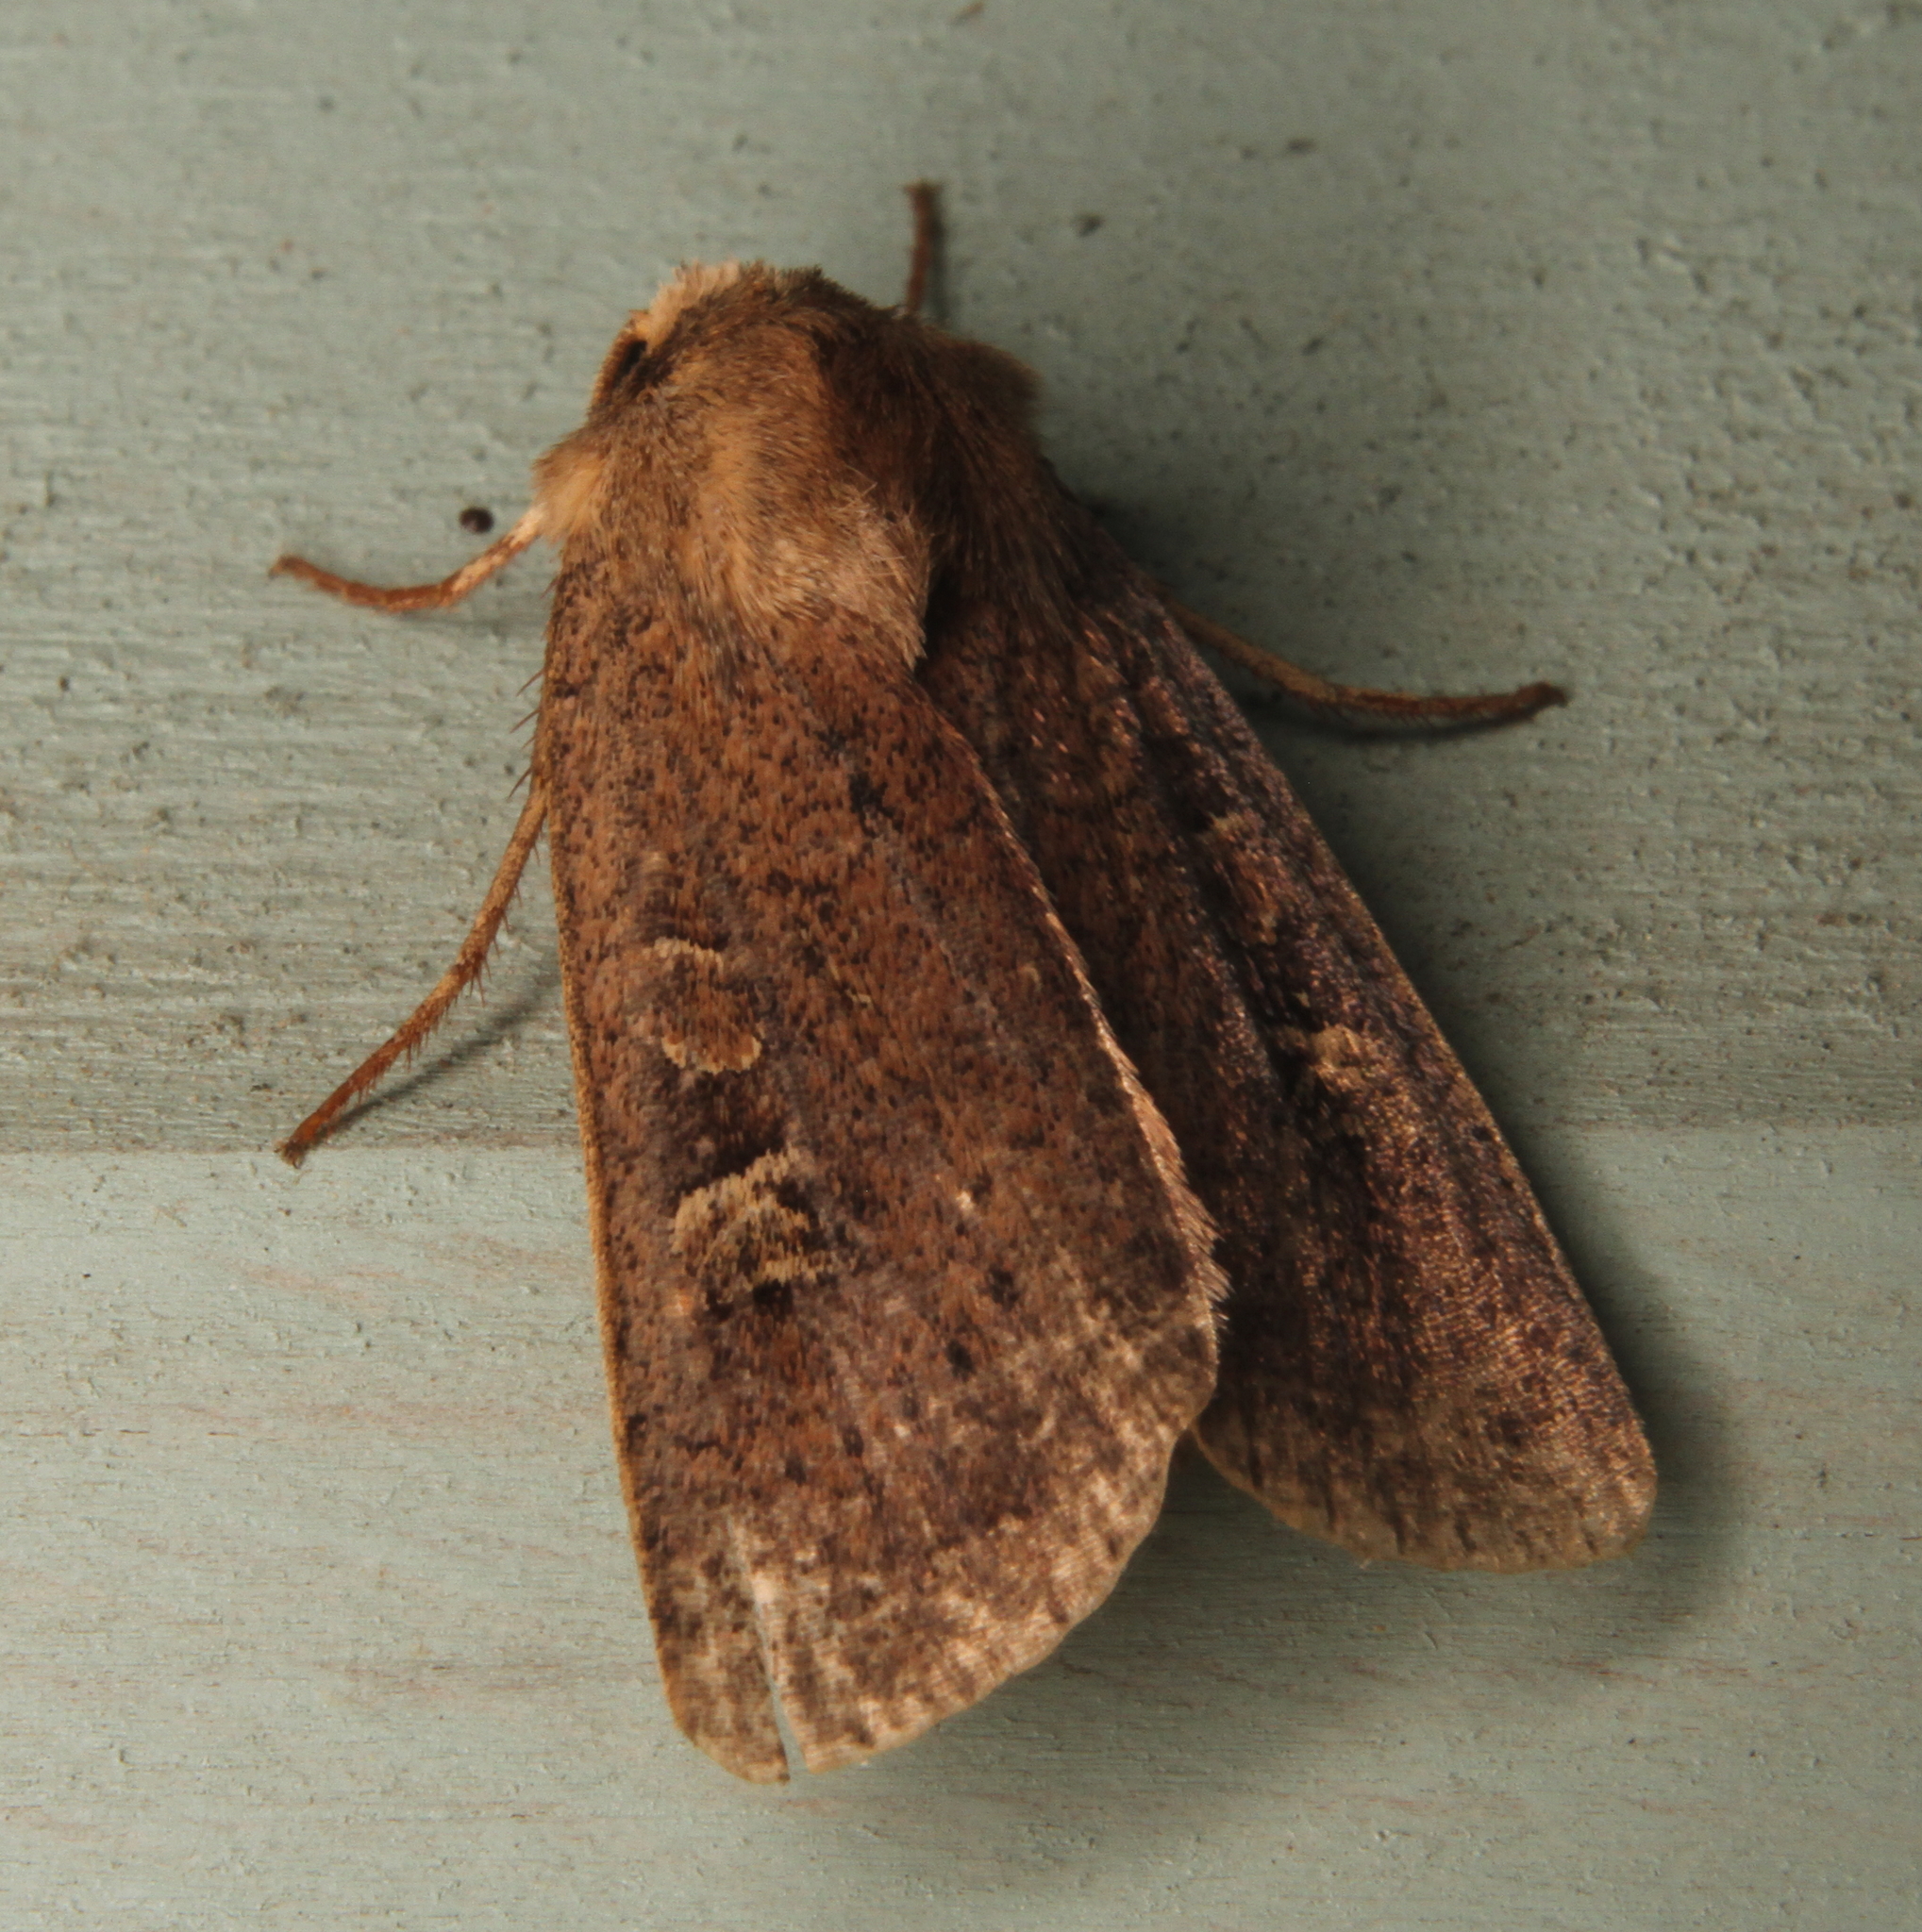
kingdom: Animalia
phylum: Arthropoda
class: Insecta
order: Lepidoptera
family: Noctuidae
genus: Xestia
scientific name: Xestia xanthographa
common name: Square-spot rustic
